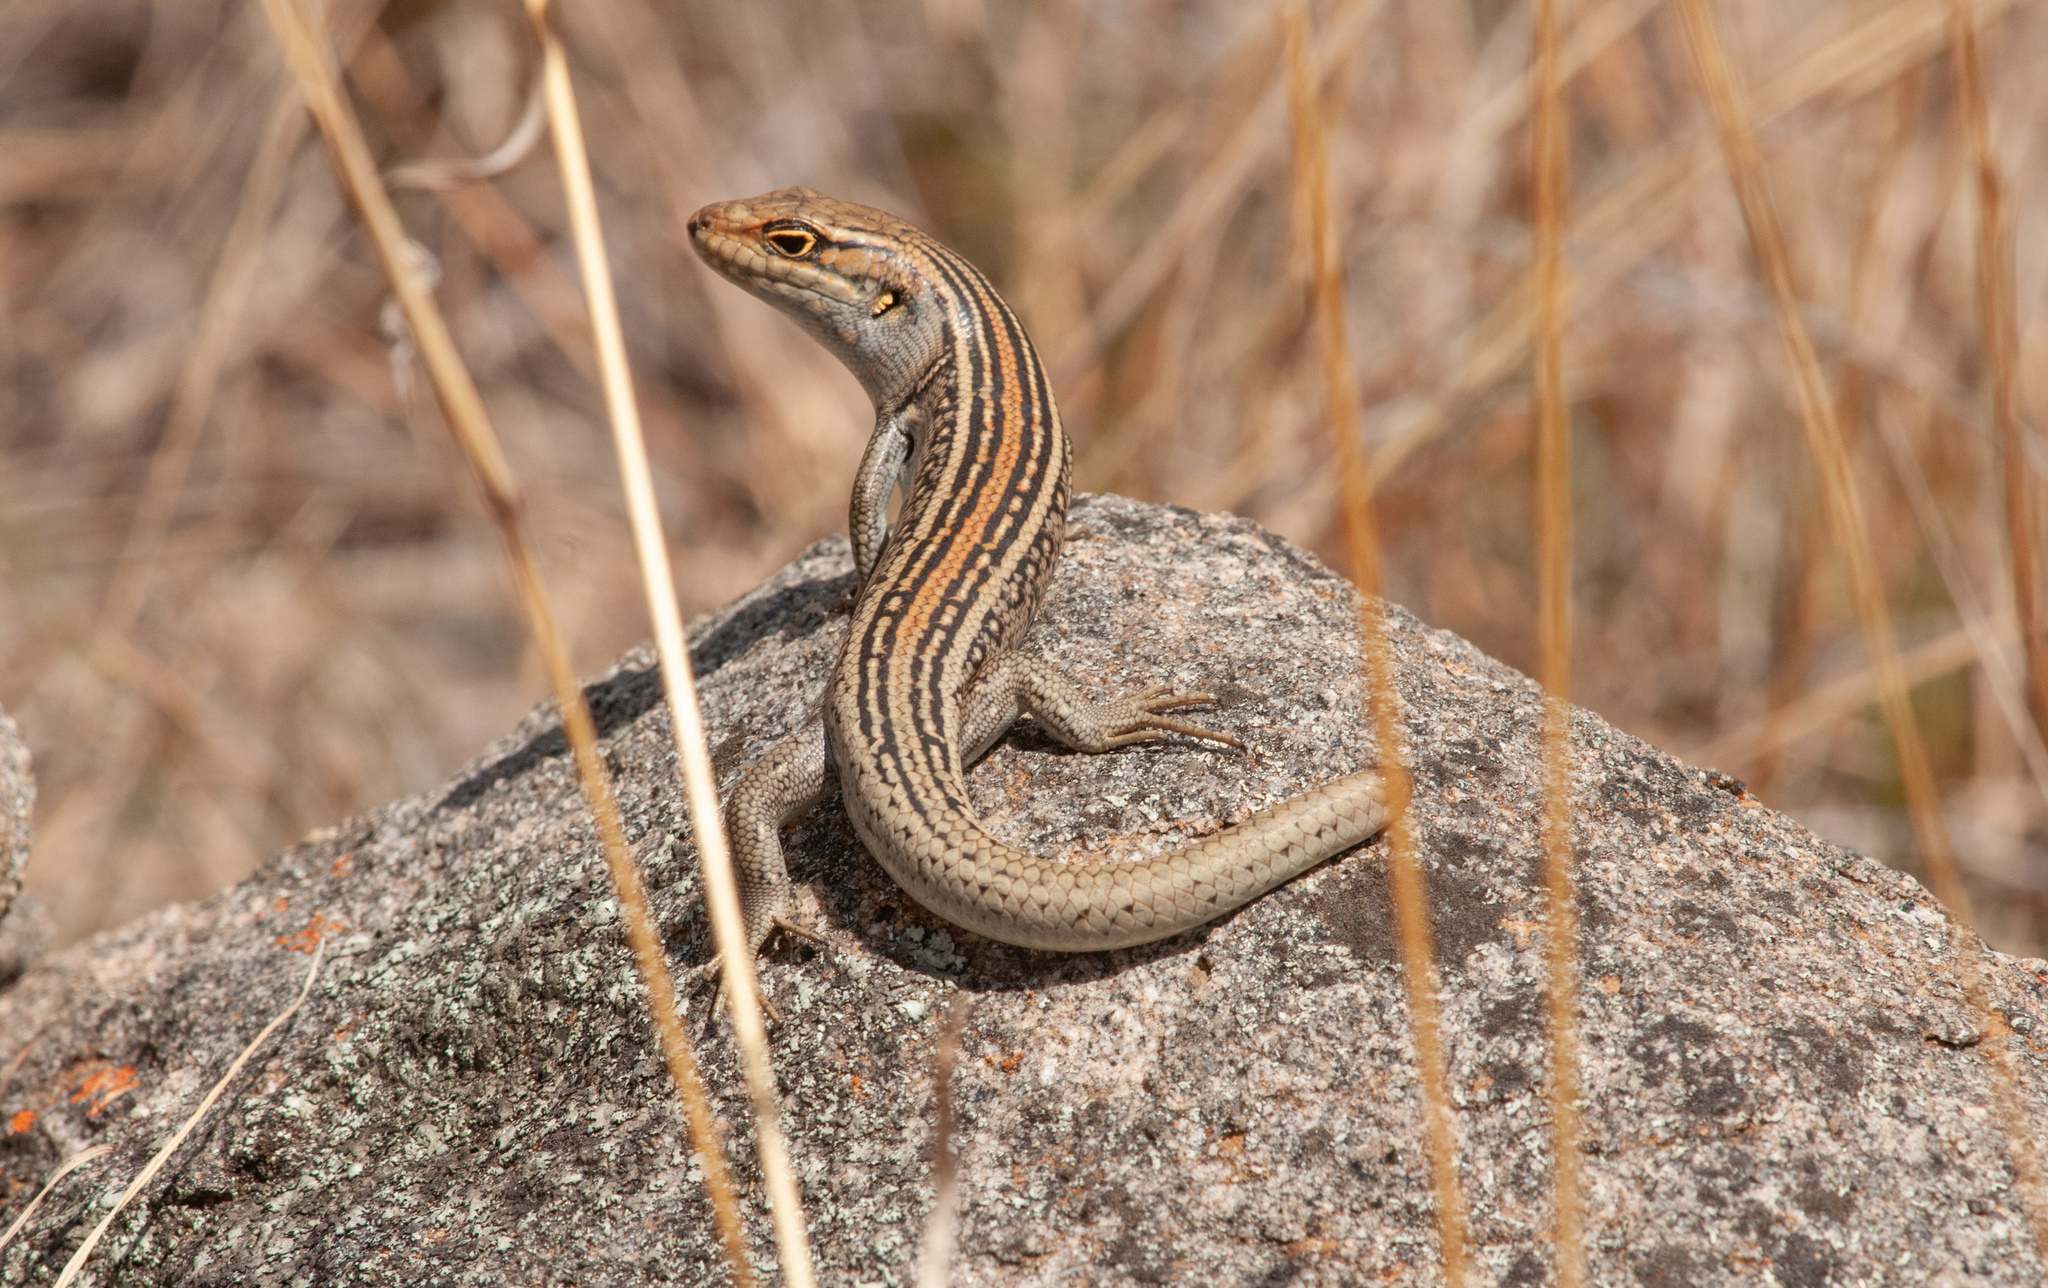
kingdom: Animalia
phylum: Chordata
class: Squamata
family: Scincidae
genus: Liopholis
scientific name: Liopholis whitii
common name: White's rock-skink
